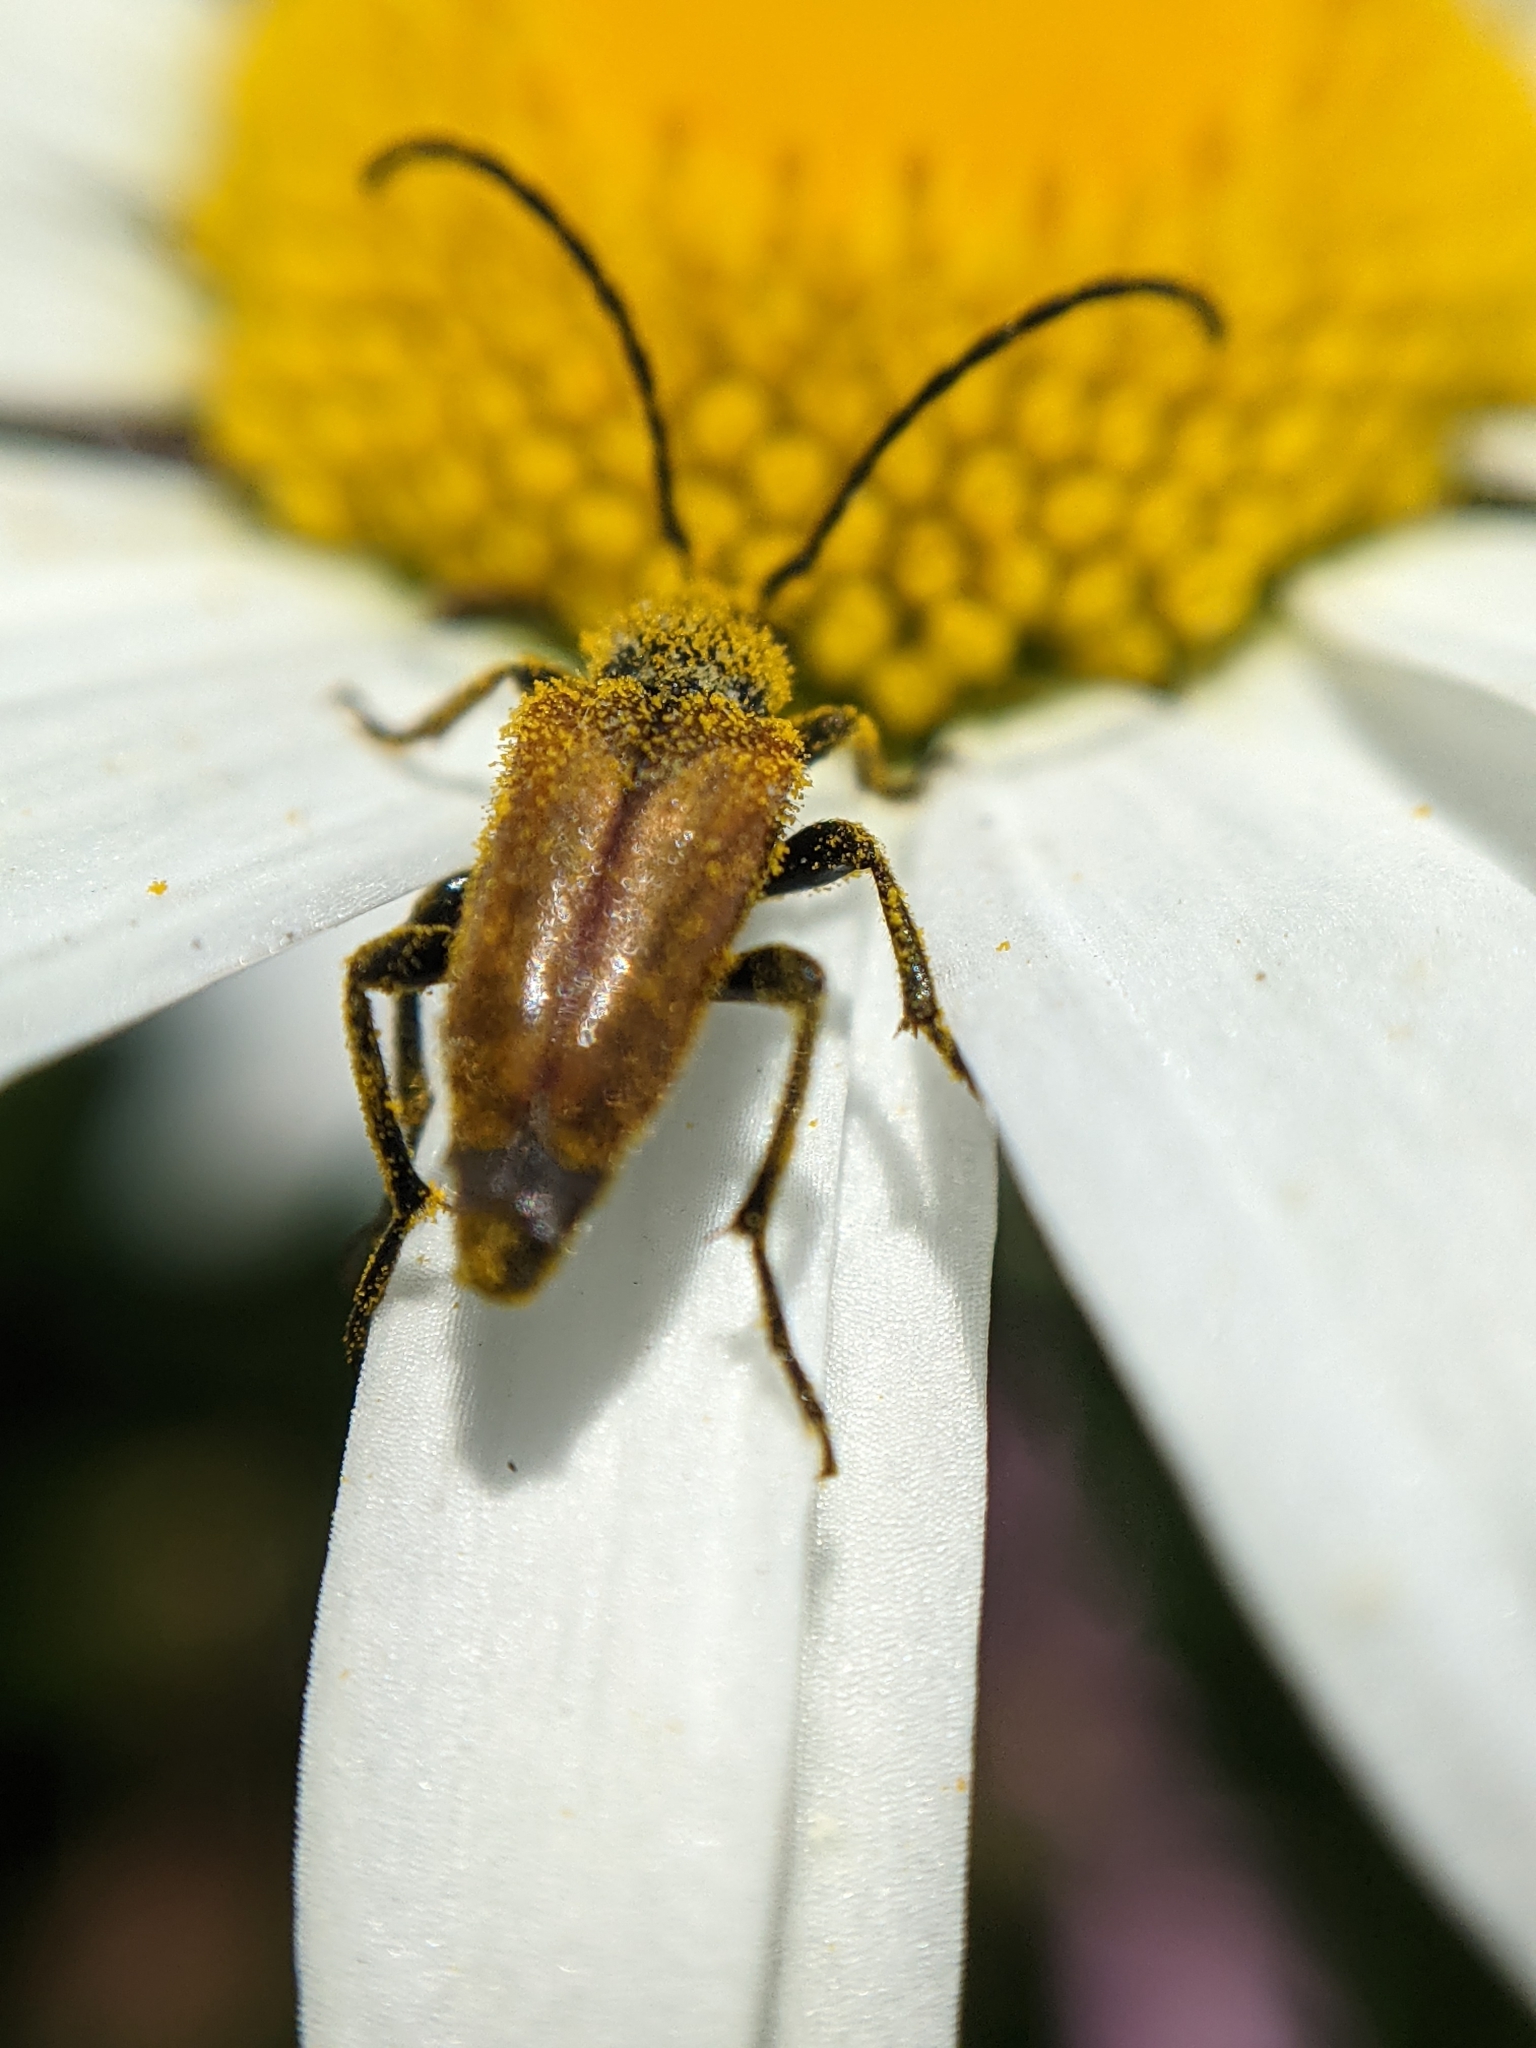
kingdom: Animalia
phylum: Arthropoda
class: Insecta
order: Coleoptera
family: Cerambycidae
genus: Pseudovadonia
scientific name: Pseudovadonia livida
